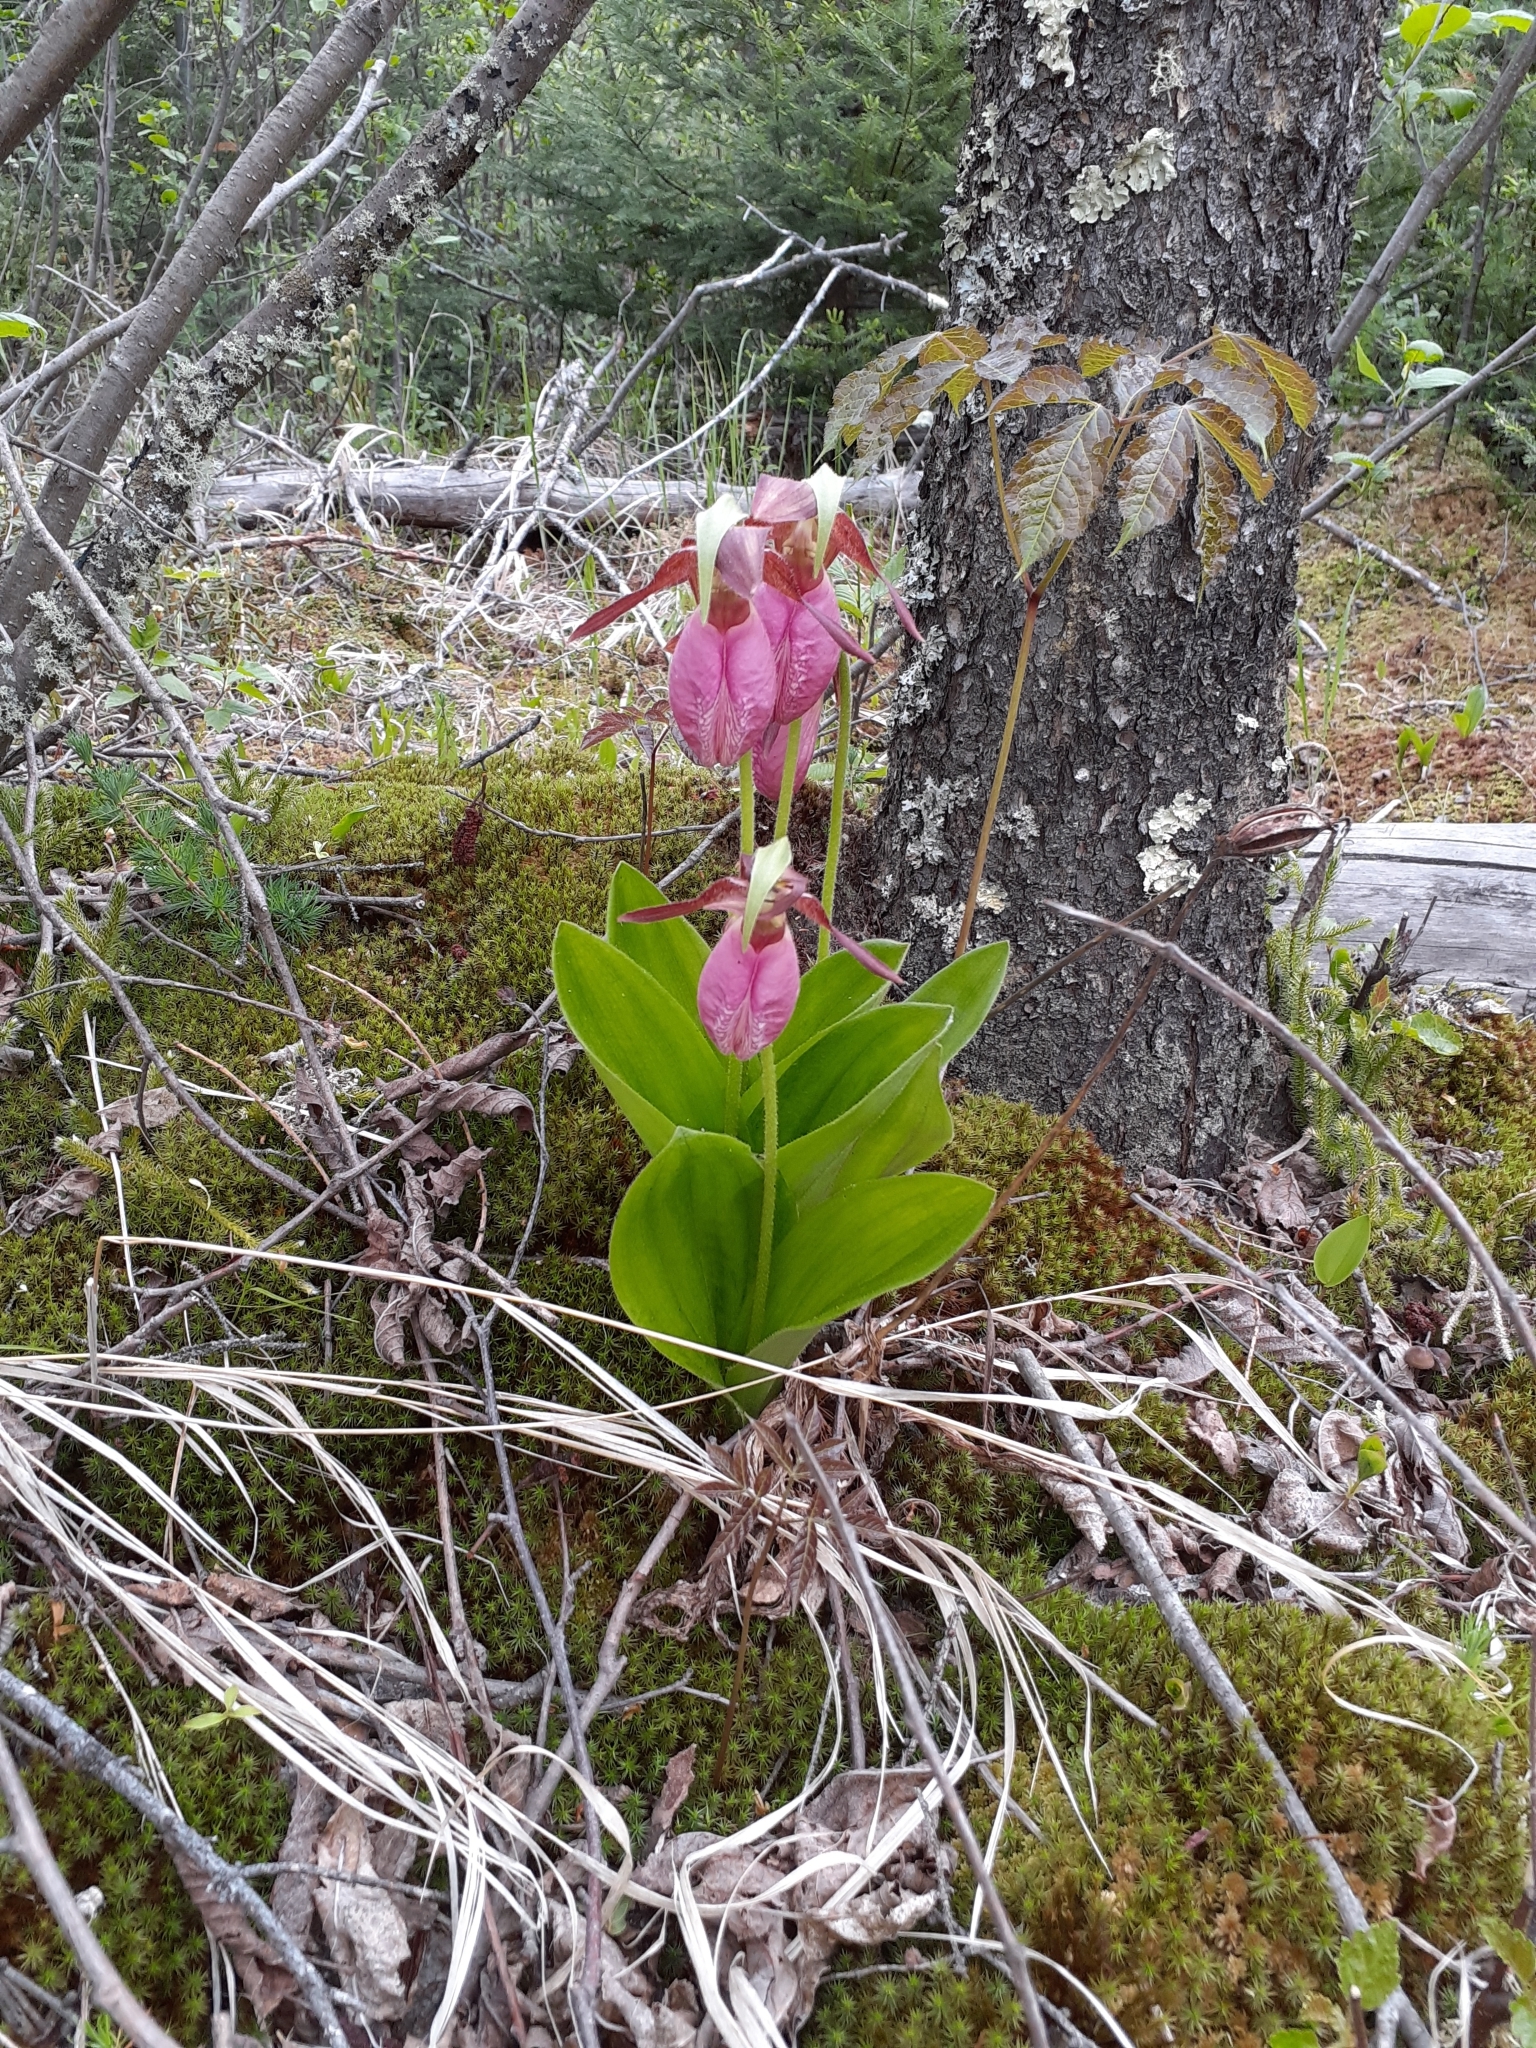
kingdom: Plantae
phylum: Tracheophyta
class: Liliopsida
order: Asparagales
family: Orchidaceae
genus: Cypripedium
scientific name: Cypripedium acaule
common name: Pink lady's-slipper
